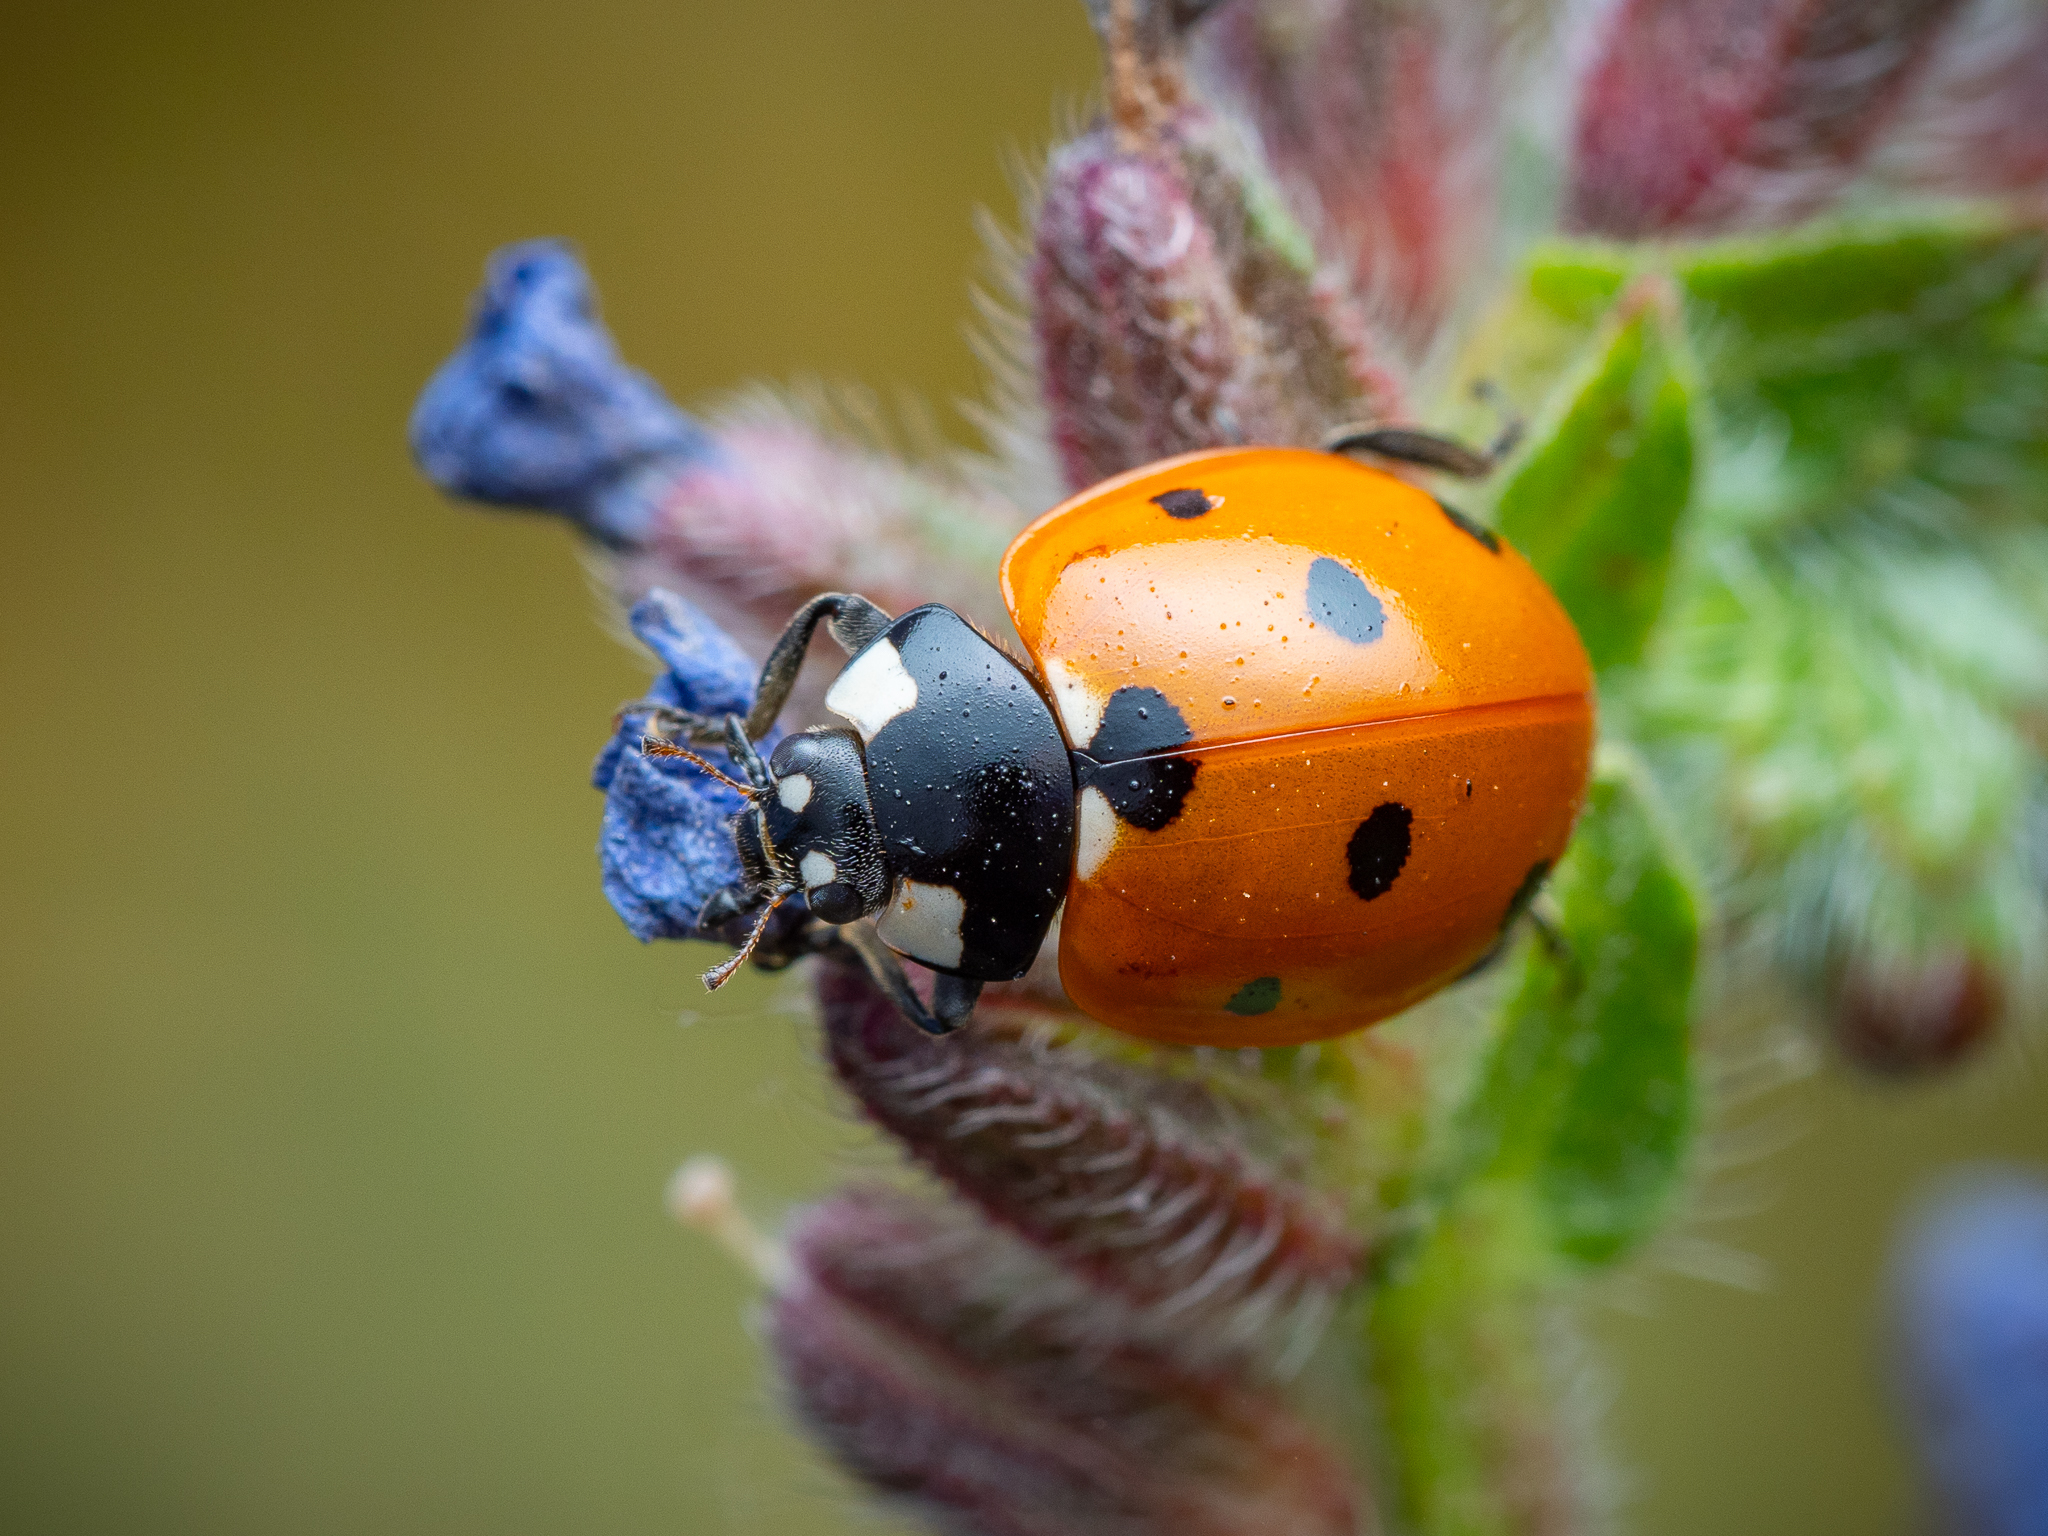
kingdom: Animalia
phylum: Arthropoda
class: Insecta
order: Coleoptera
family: Coccinellidae
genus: Coccinella
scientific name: Coccinella septempunctata
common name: Sevenspotted lady beetle
